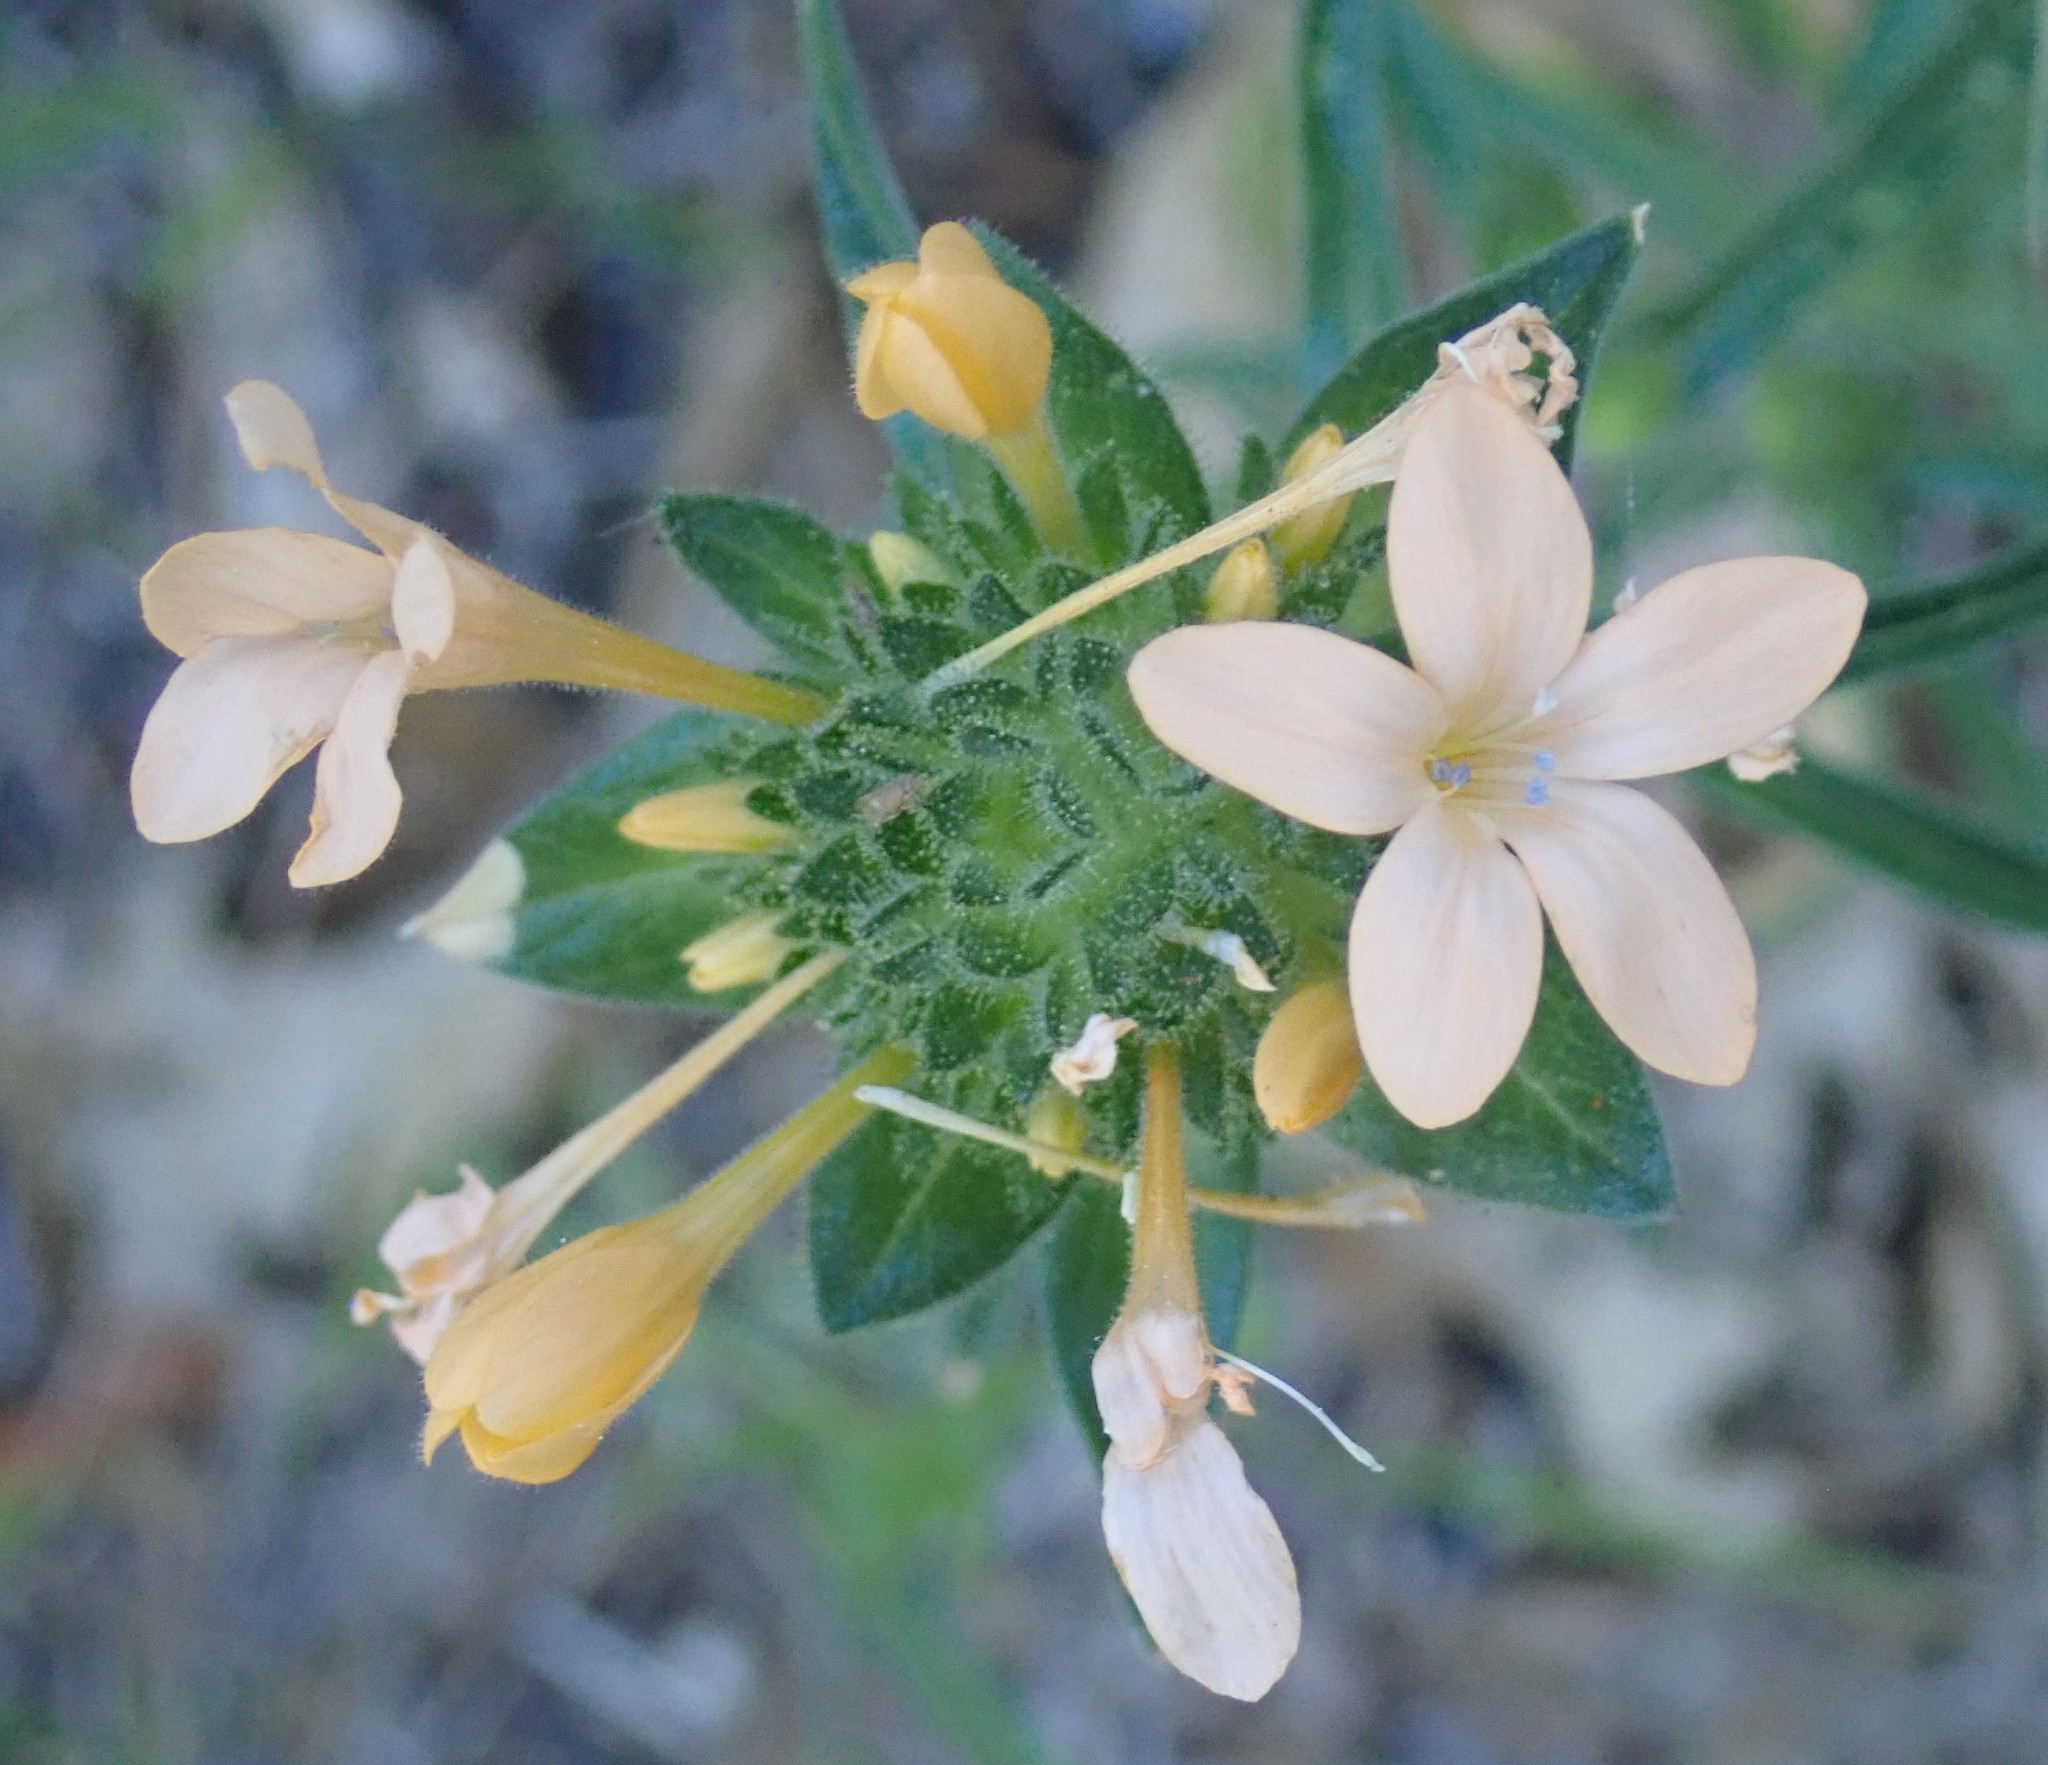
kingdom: Plantae
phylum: Tracheophyta
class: Magnoliopsida
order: Ericales
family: Polemoniaceae
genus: Collomia
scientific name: Collomia grandiflora
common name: California strawflower
